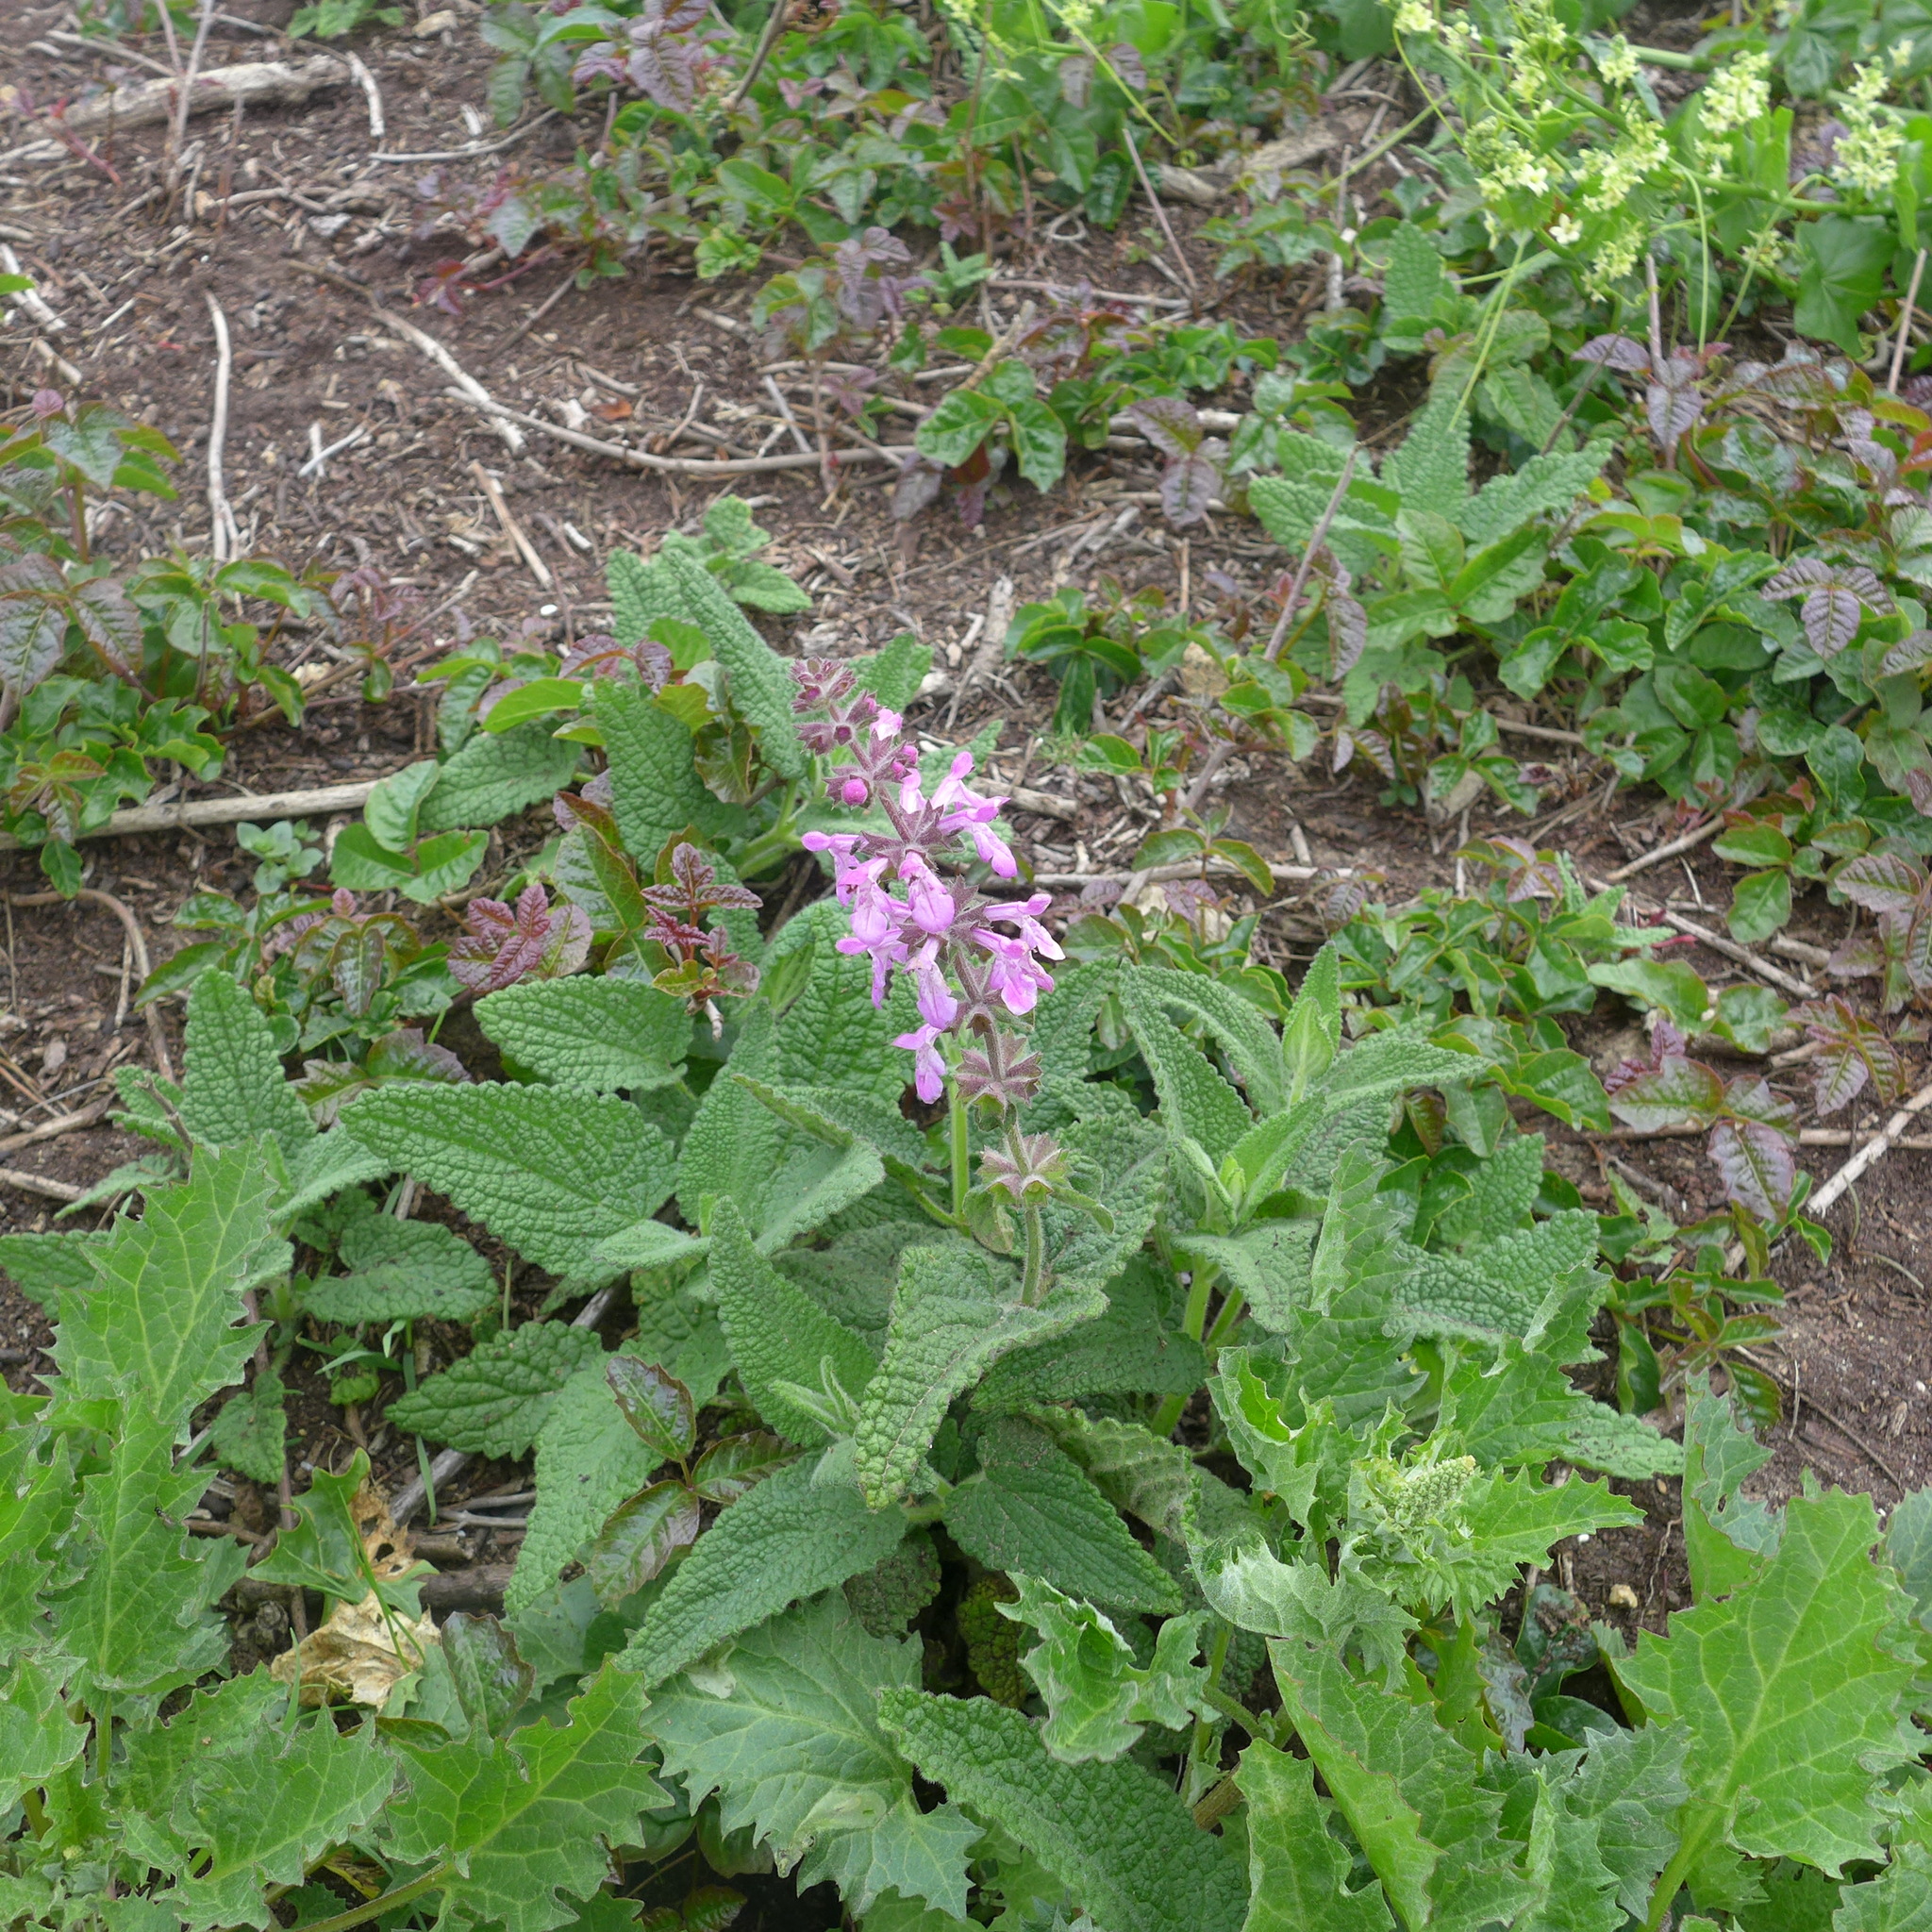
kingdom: Plantae
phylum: Tracheophyta
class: Magnoliopsida
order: Lamiales
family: Lamiaceae
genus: Stachys
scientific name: Stachys bullata
